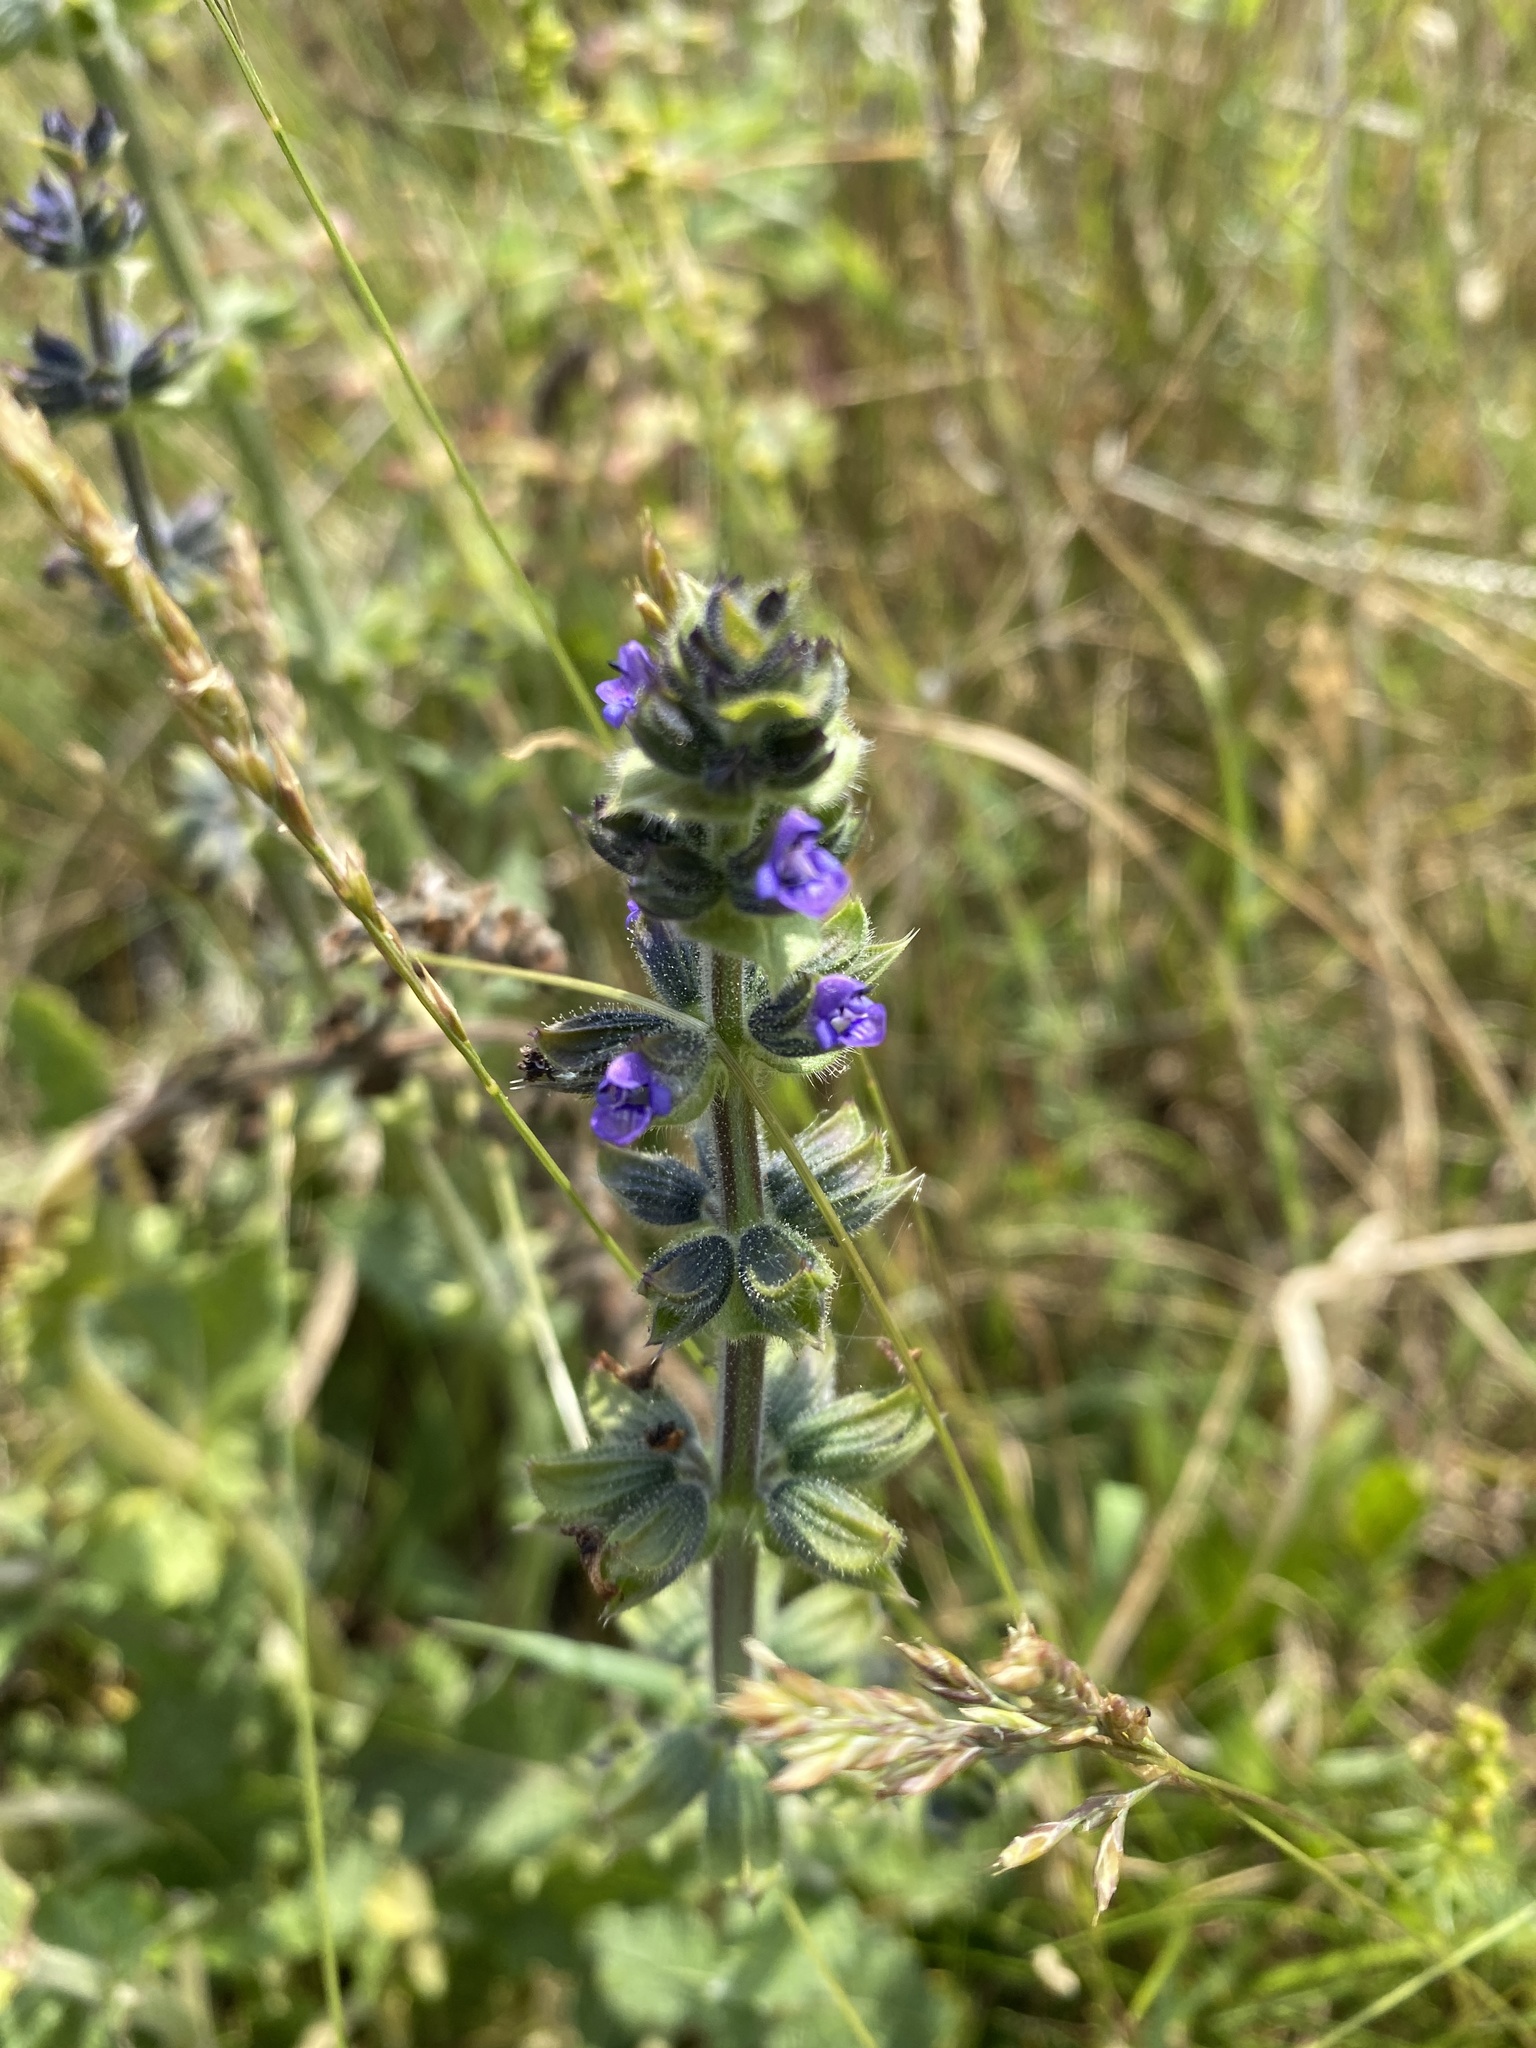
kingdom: Plantae
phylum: Tracheophyta
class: Magnoliopsida
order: Lamiales
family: Lamiaceae
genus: Salvia
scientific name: Salvia verbenaca
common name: Wild clary
